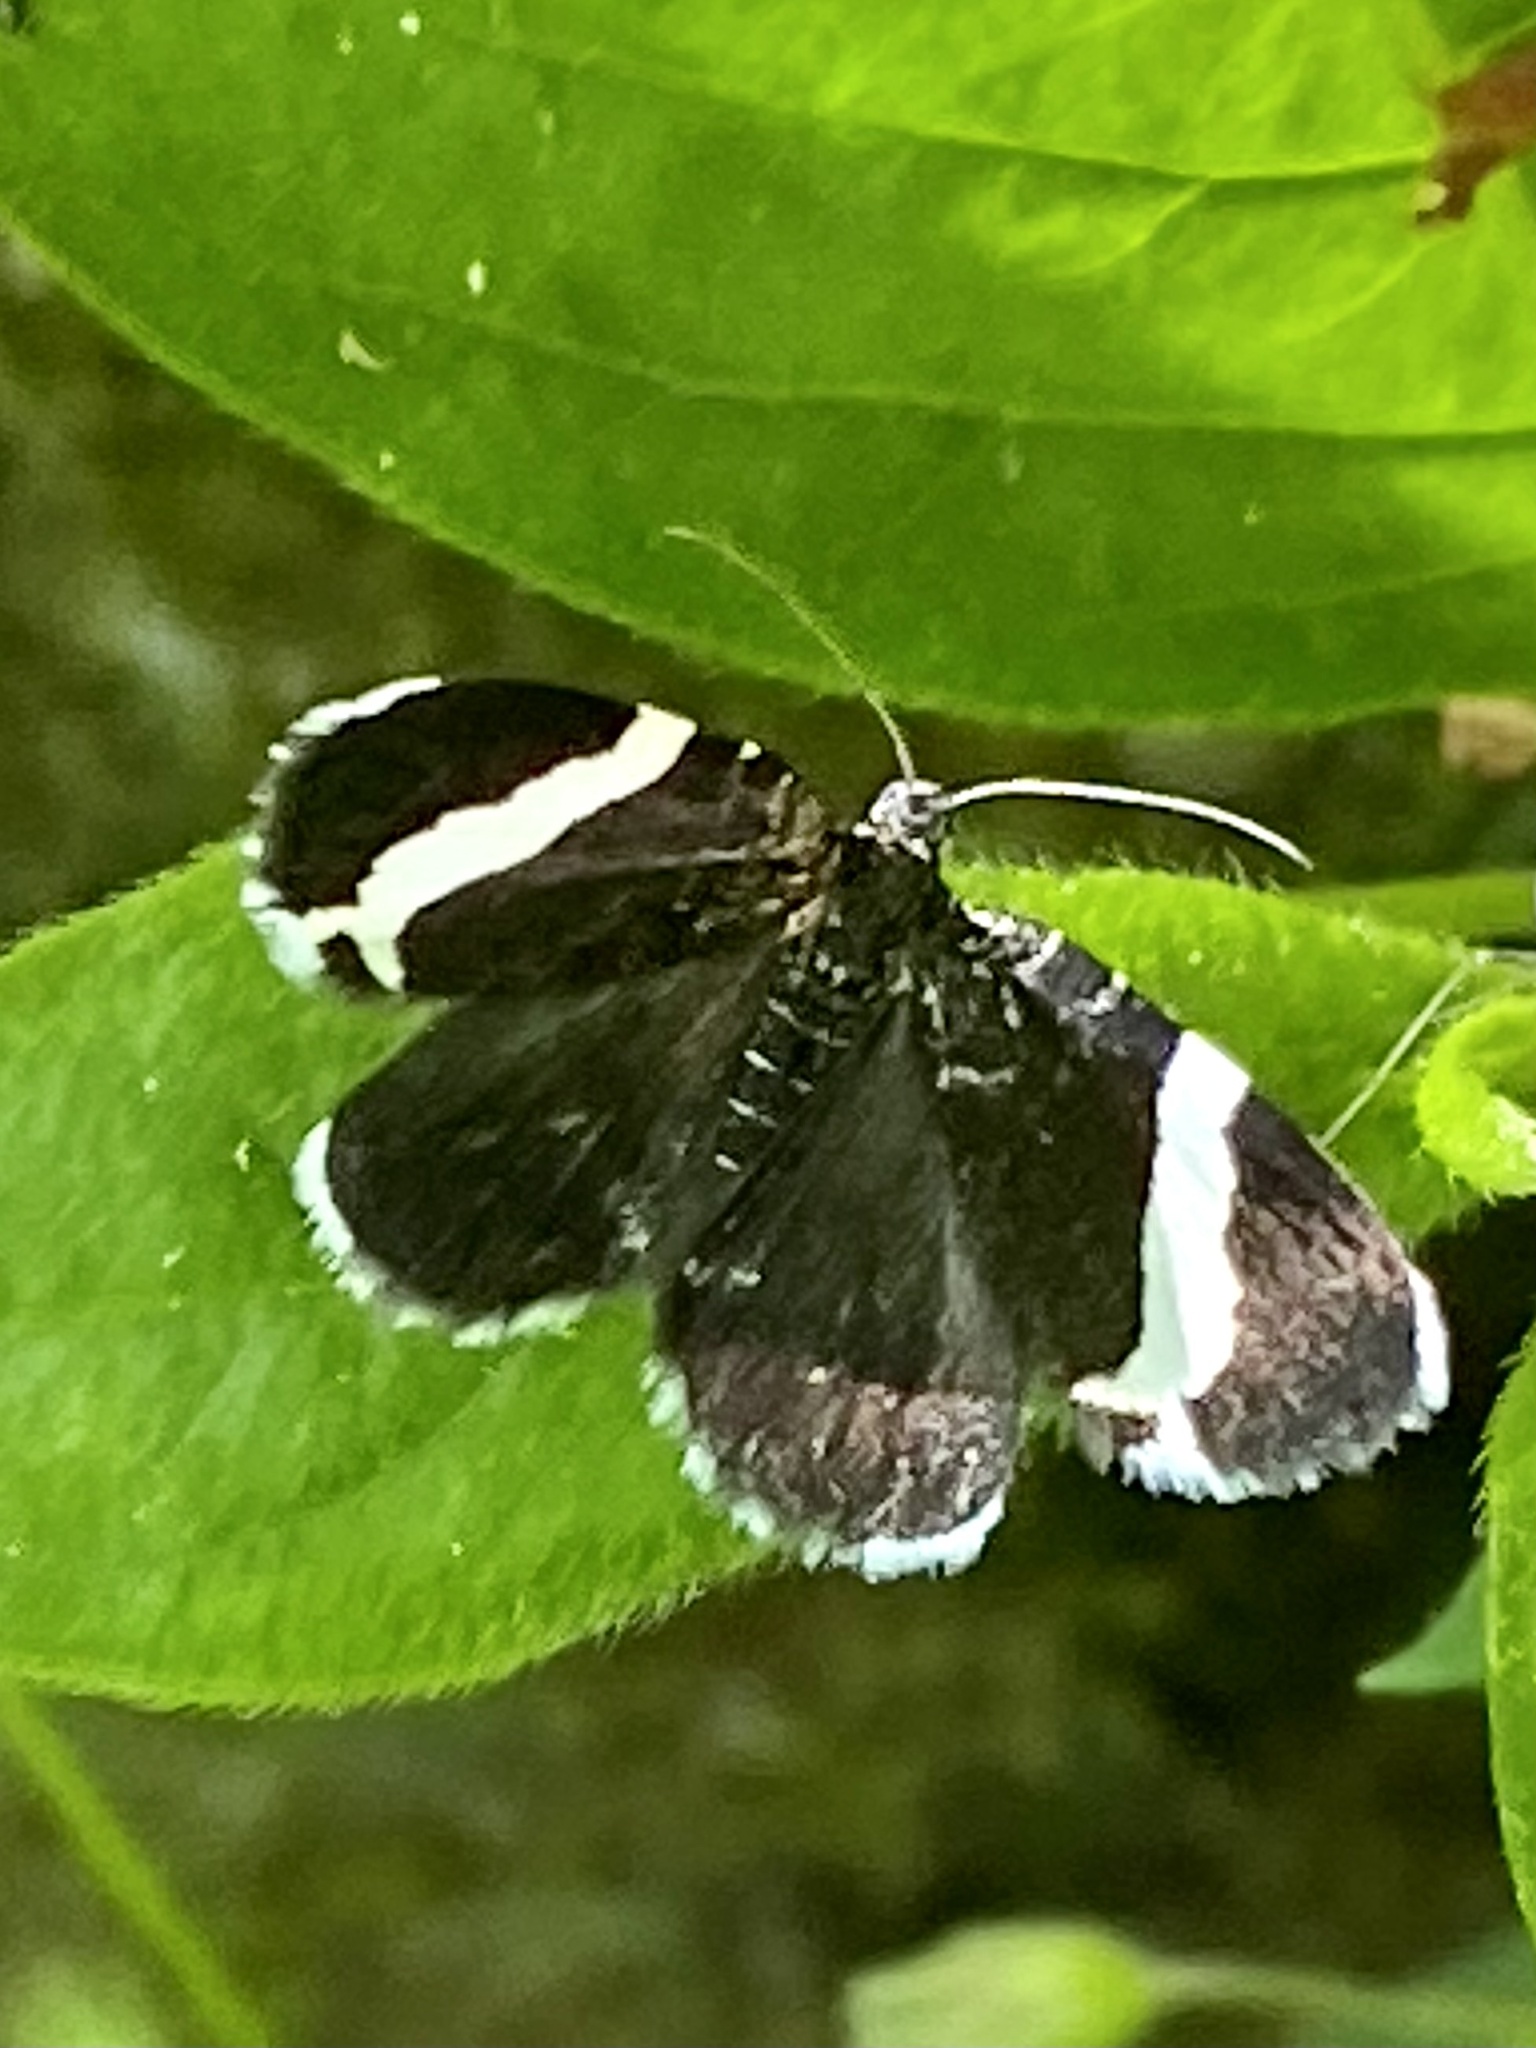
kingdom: Animalia
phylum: Arthropoda
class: Insecta
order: Lepidoptera
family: Geometridae
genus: Trichodezia
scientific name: Trichodezia albovittata
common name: White striped black
